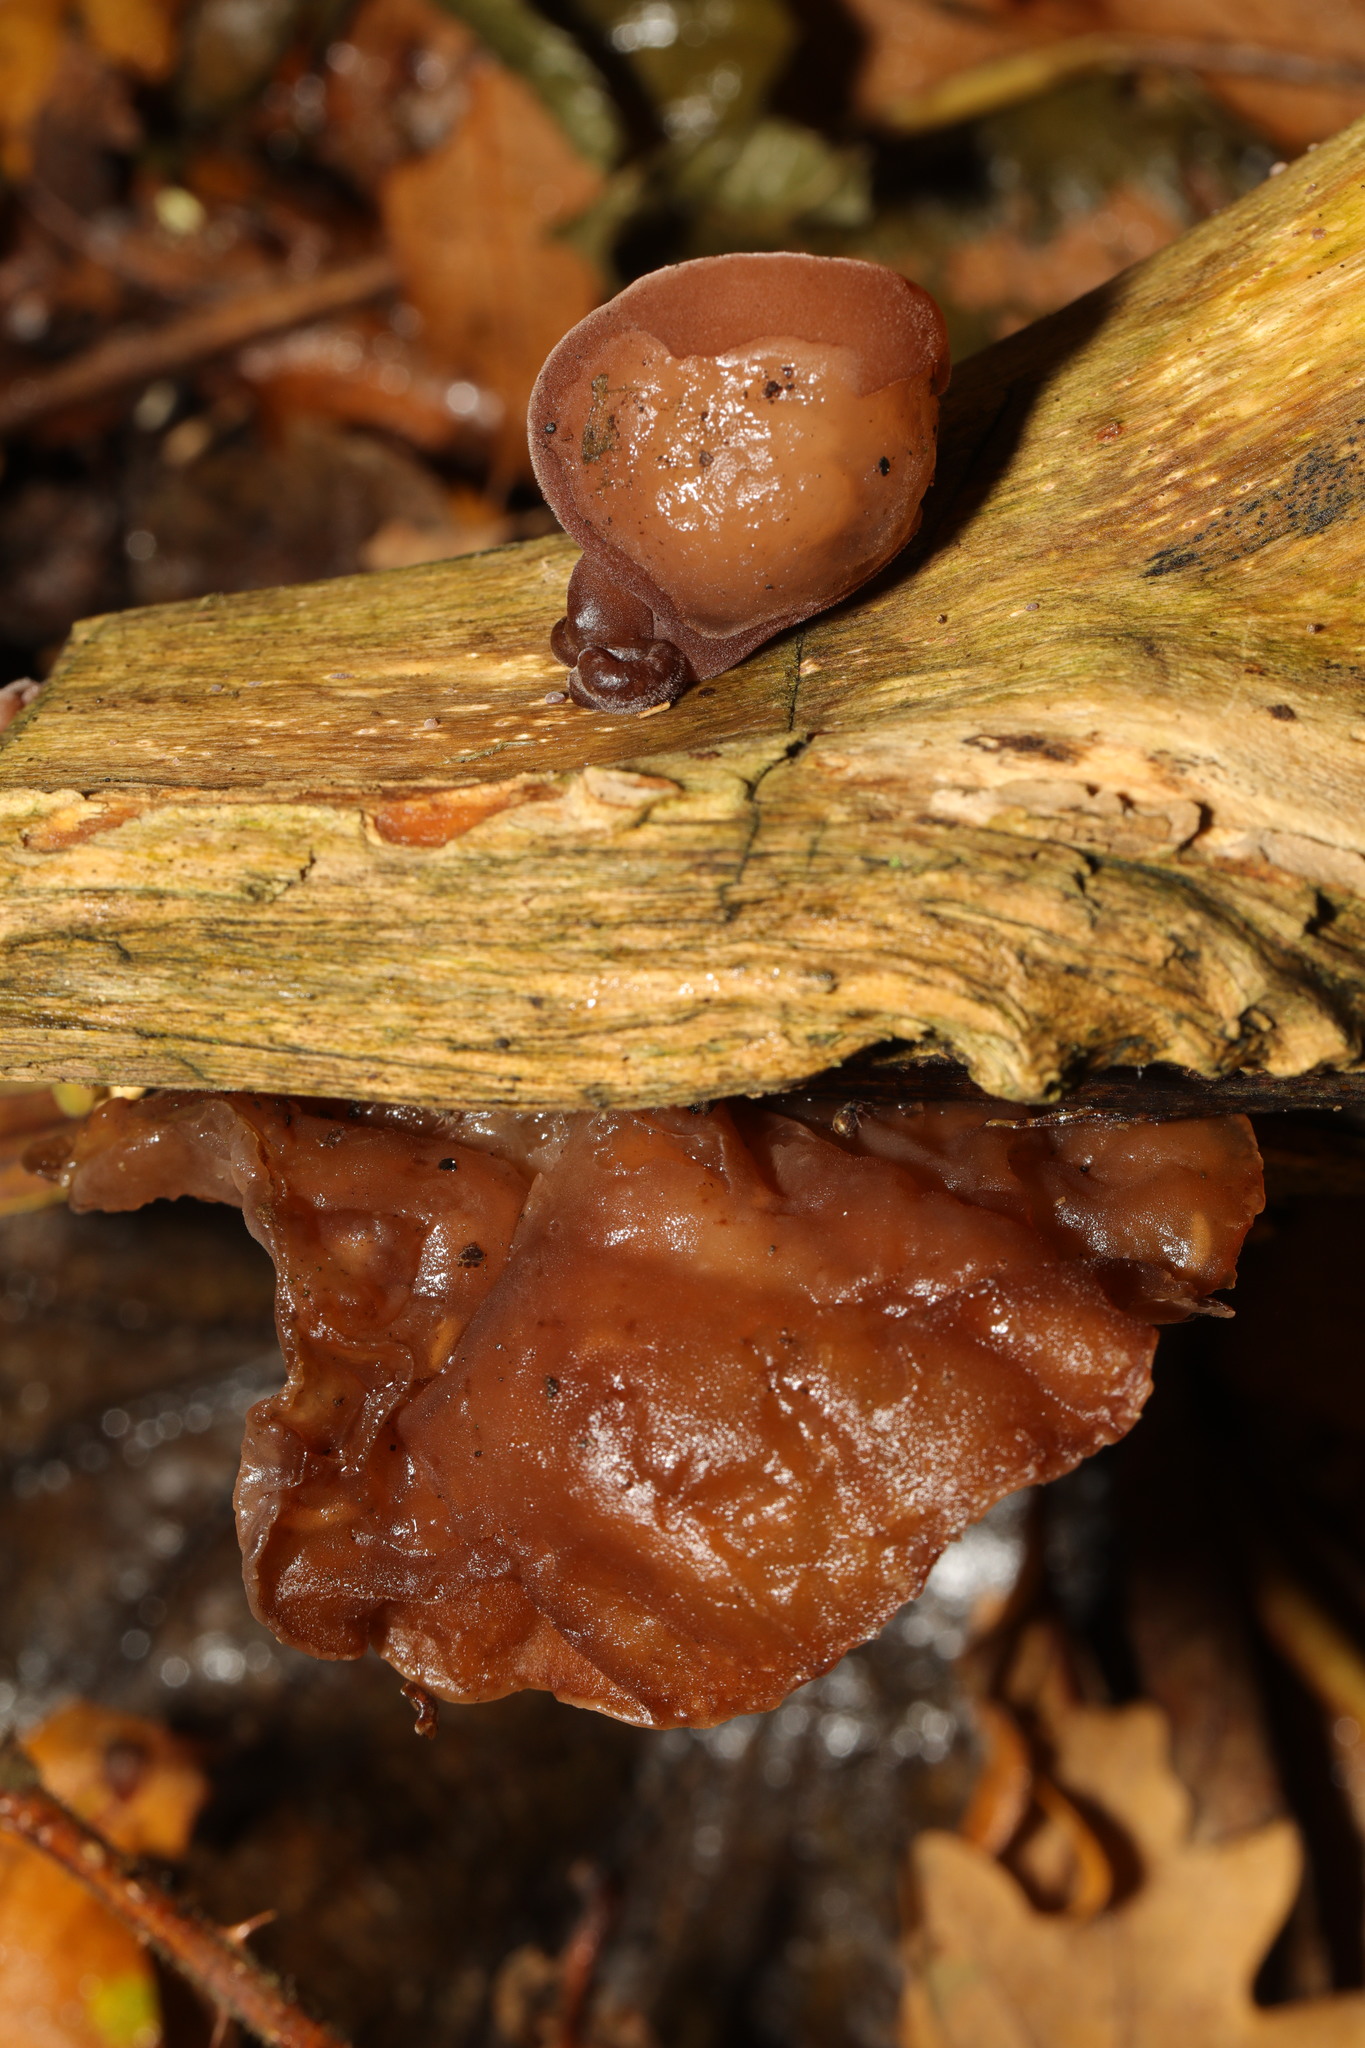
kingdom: Fungi
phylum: Basidiomycota
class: Agaricomycetes
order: Auriculariales
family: Auriculariaceae
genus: Auricularia
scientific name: Auricularia auricula-judae
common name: Jelly ear
